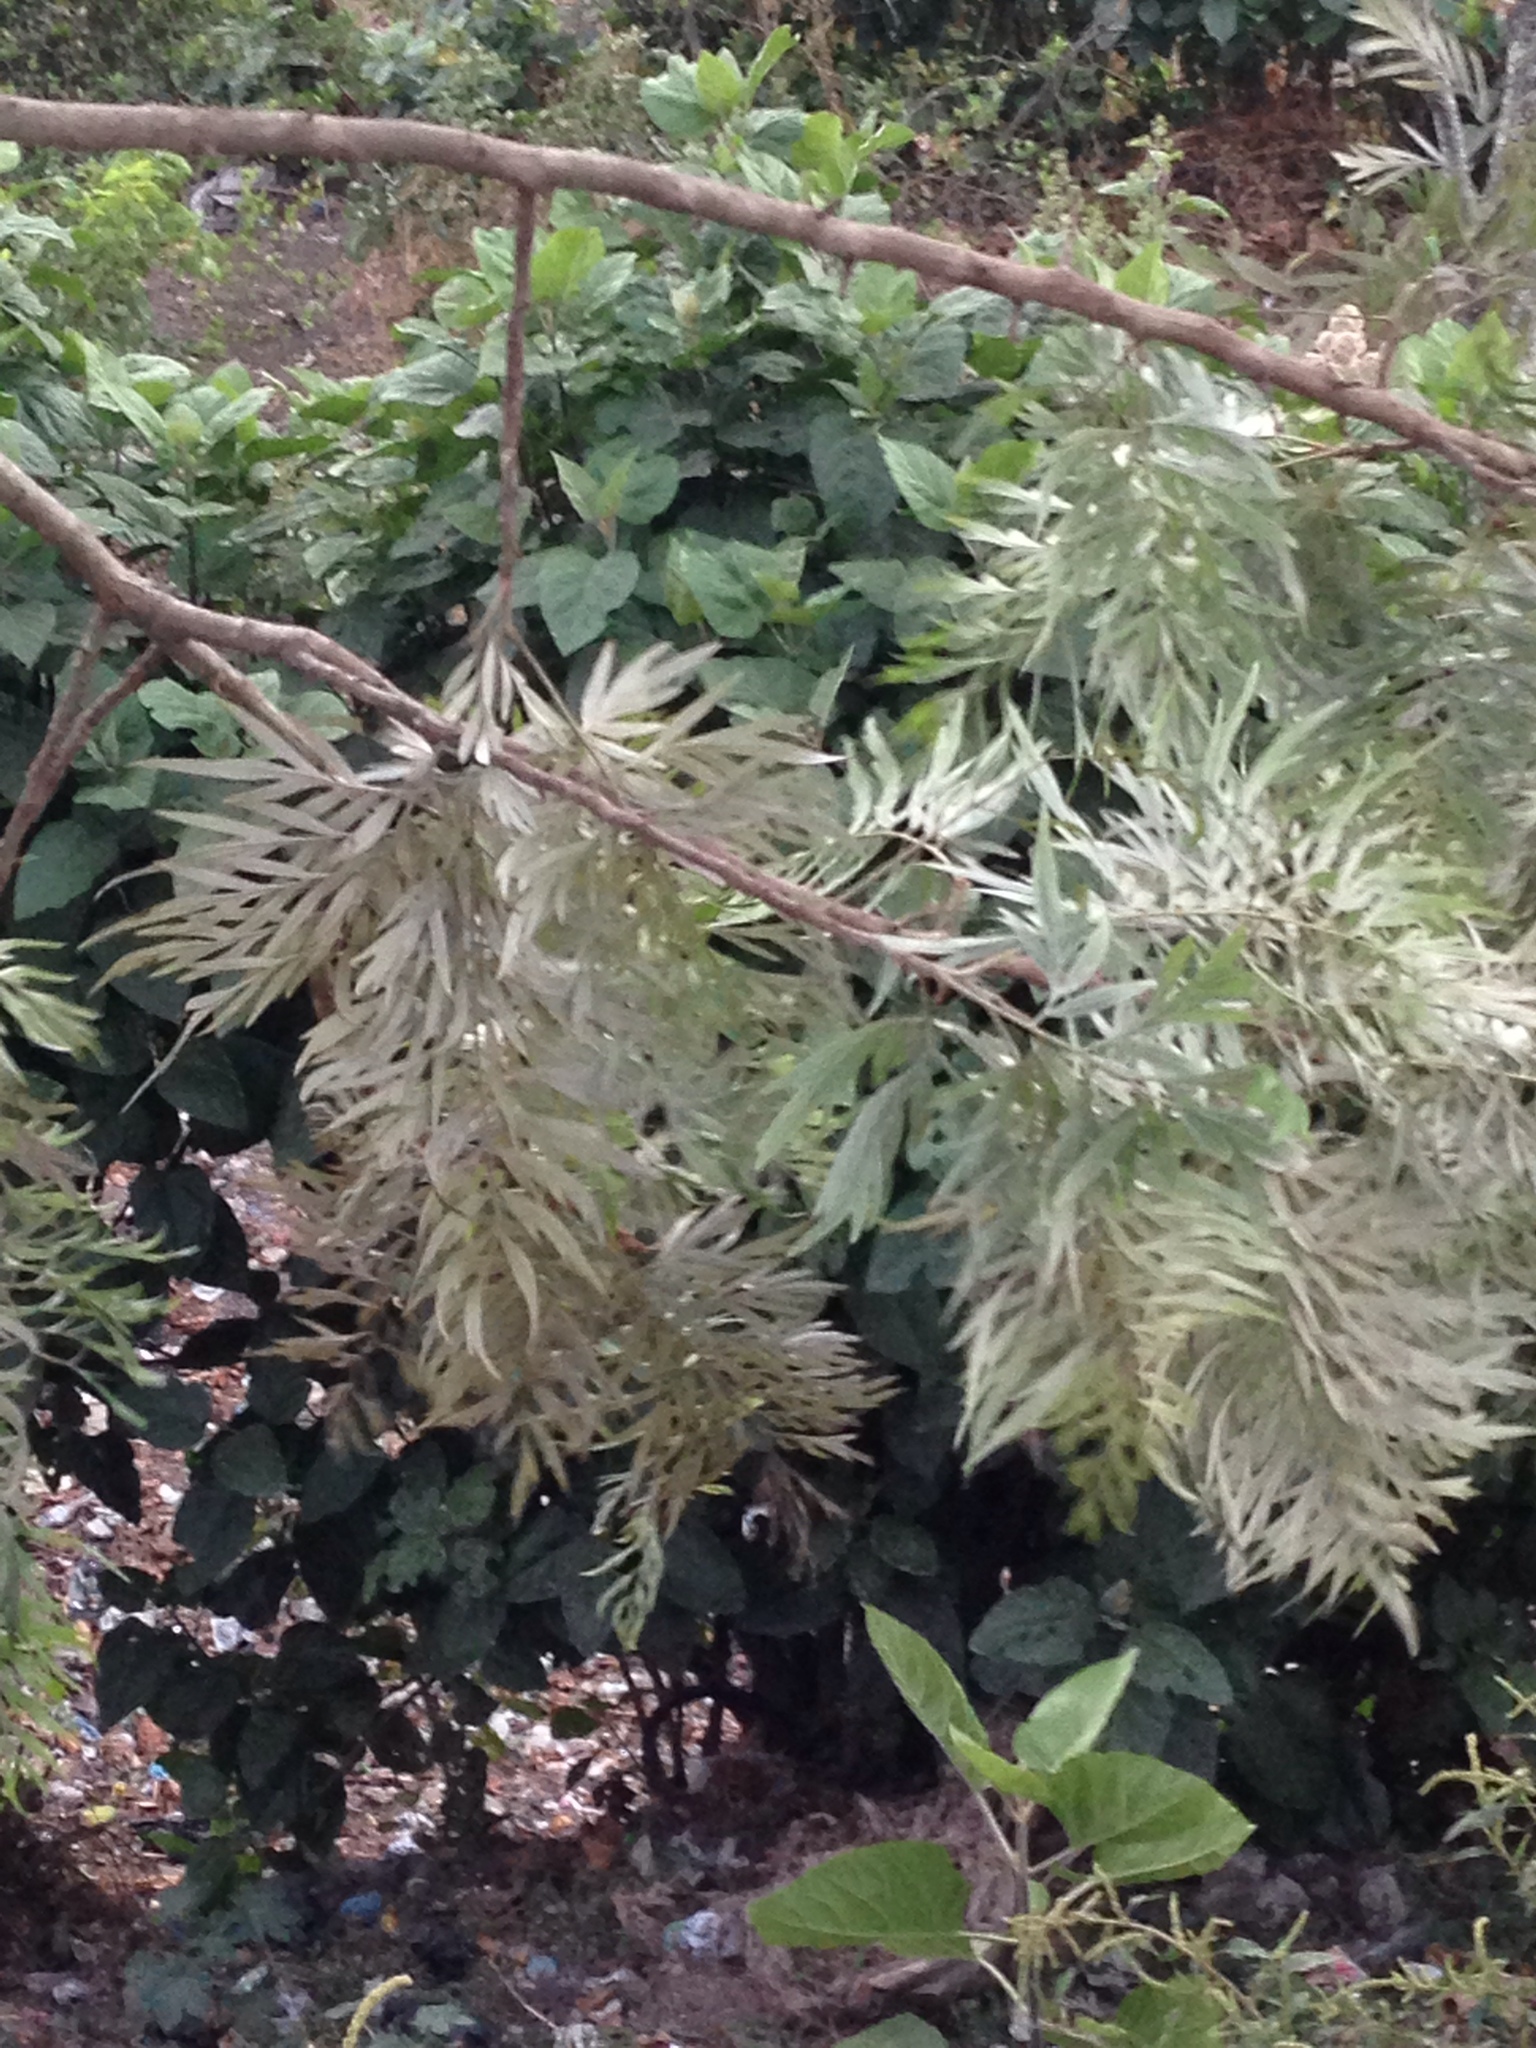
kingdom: Plantae
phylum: Tracheophyta
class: Magnoliopsida
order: Proteales
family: Proteaceae
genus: Grevillea
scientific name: Grevillea robusta
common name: Silkoak
